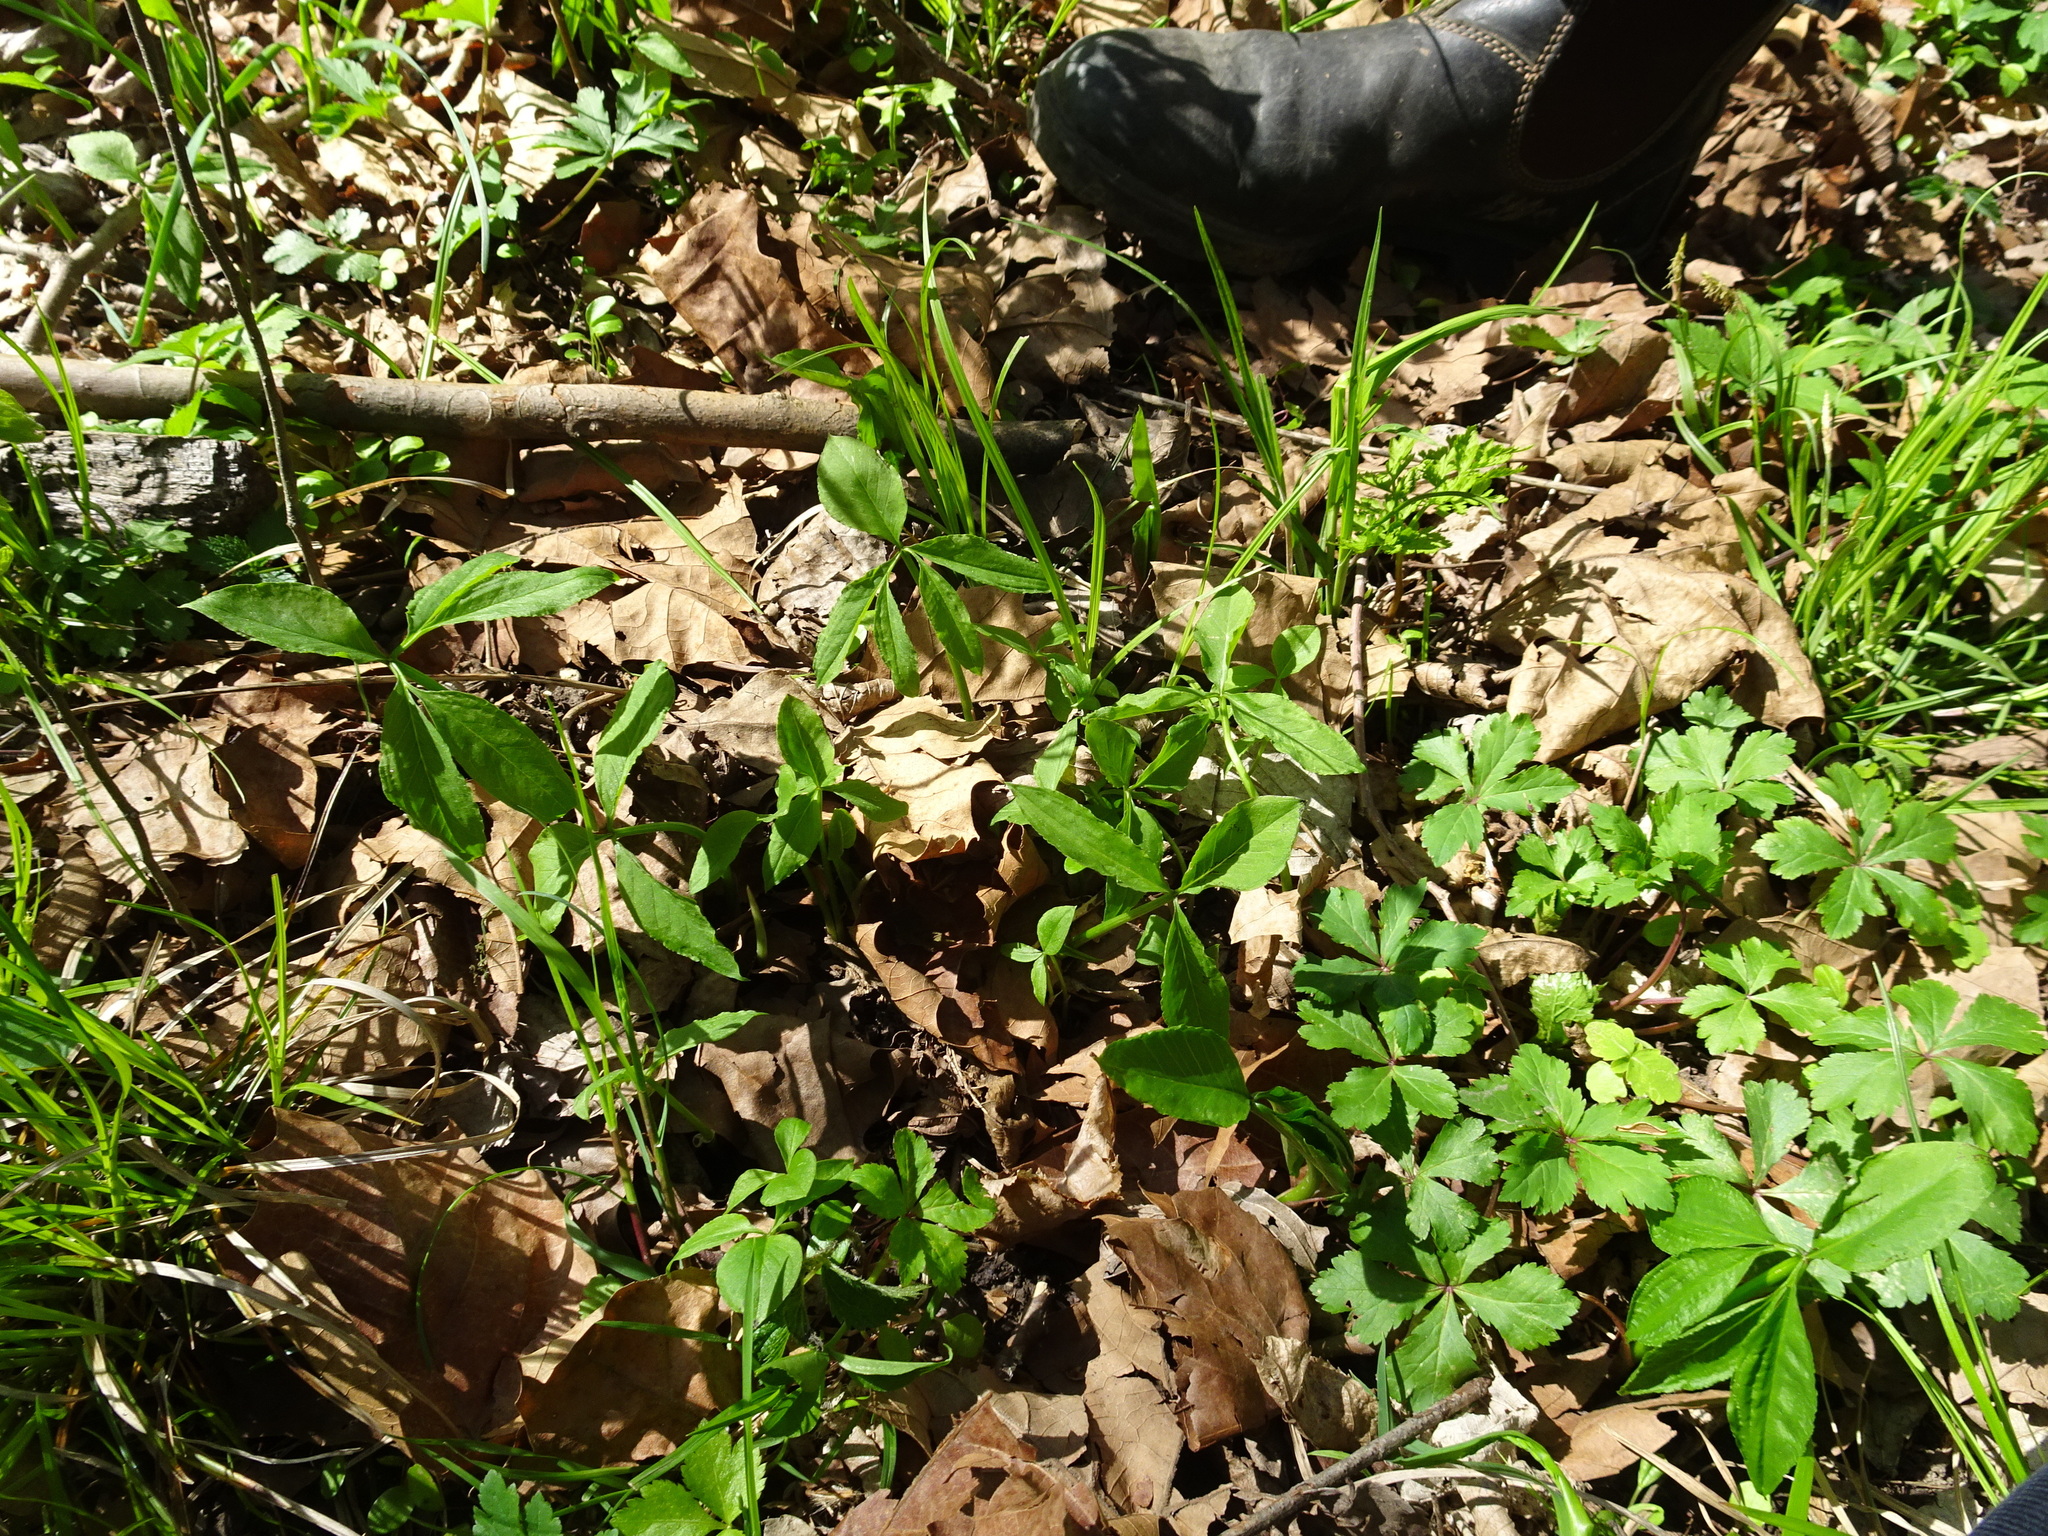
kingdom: Plantae
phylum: Tracheophyta
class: Liliopsida
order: Alismatales
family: Araceae
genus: Arisaema
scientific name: Arisaema dracontium
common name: Dragon-arum
